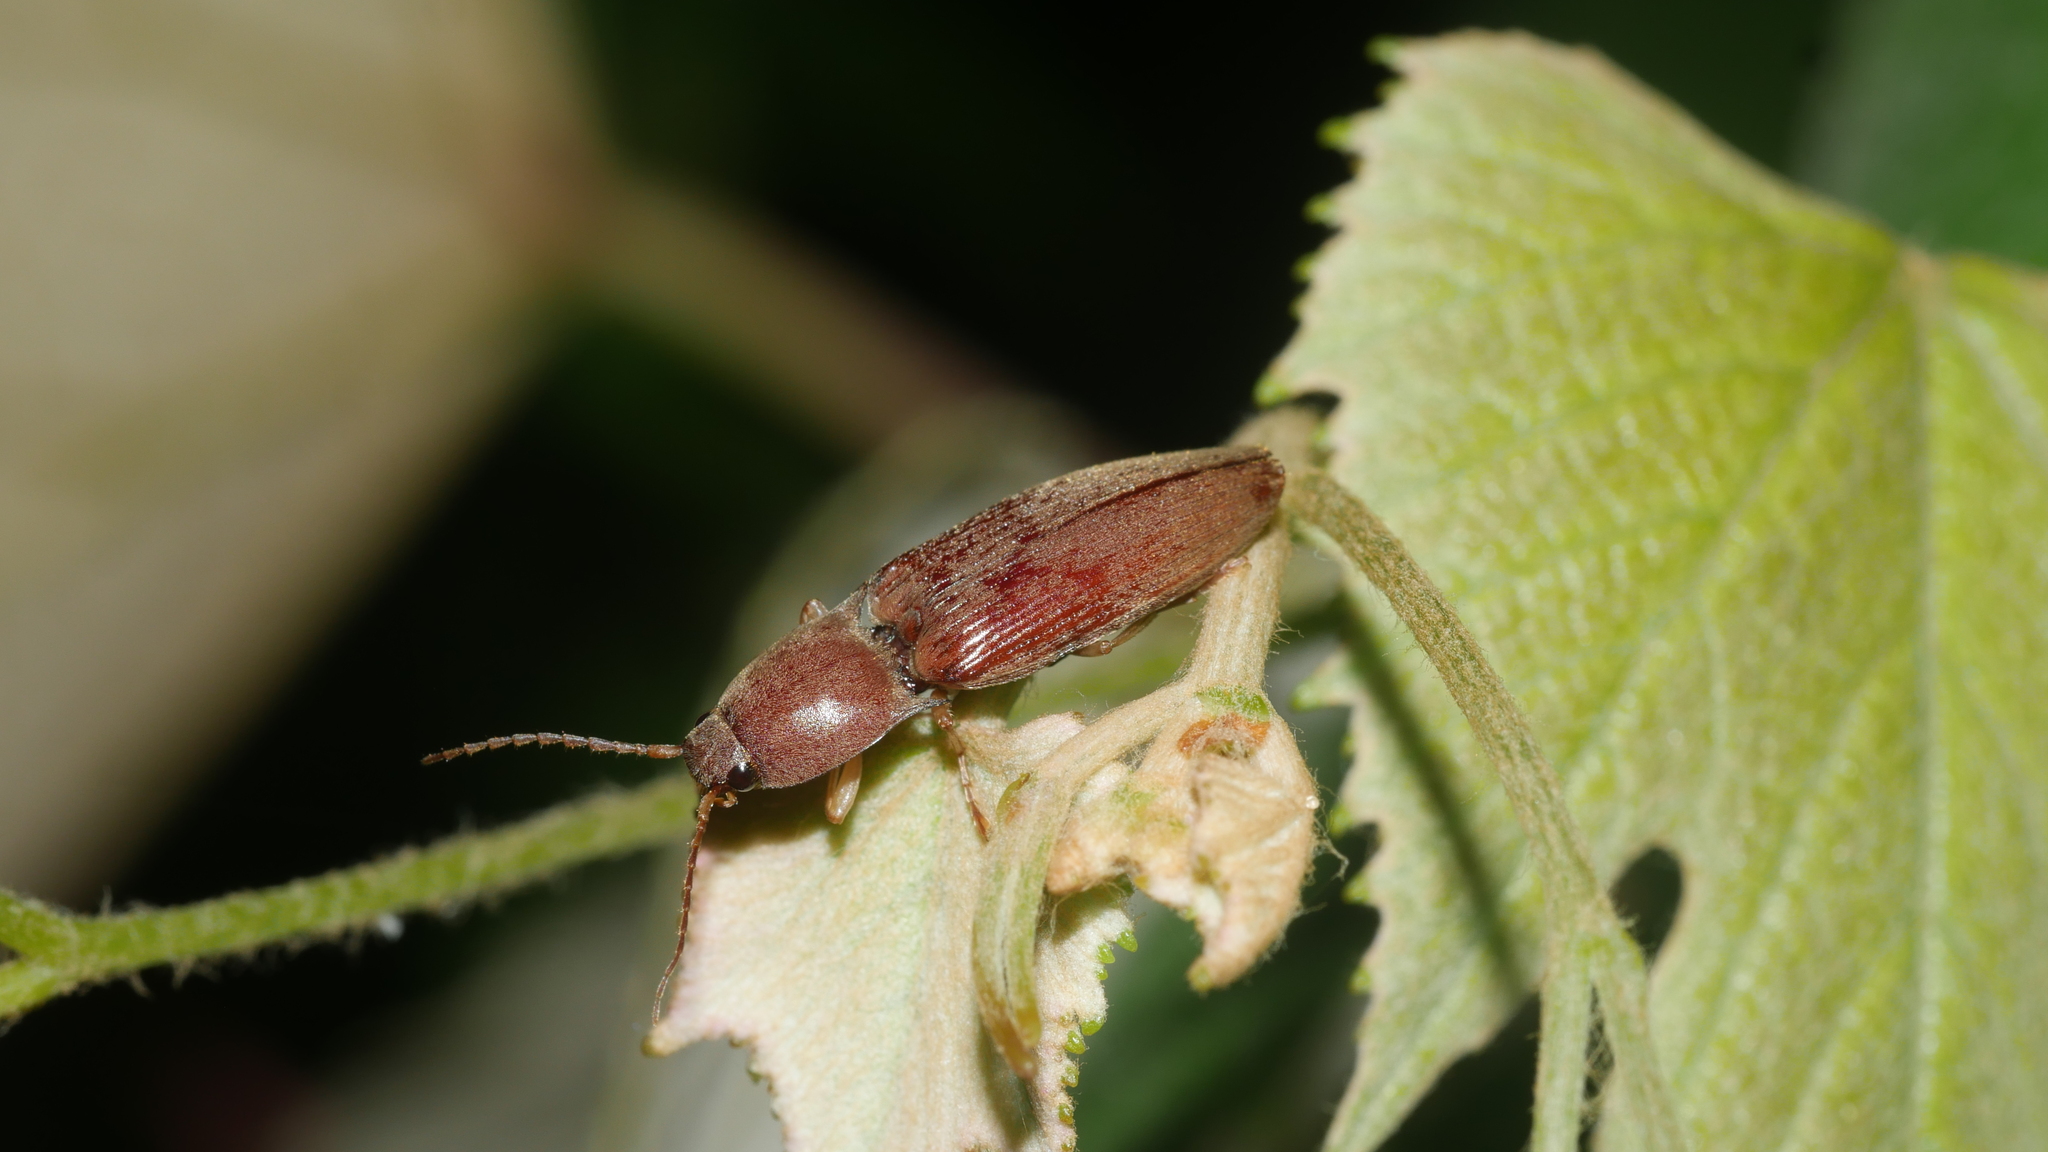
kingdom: Animalia
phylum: Arthropoda
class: Insecta
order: Coleoptera
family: Elateridae
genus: Monocrepidius
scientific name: Monocrepidius lividus
